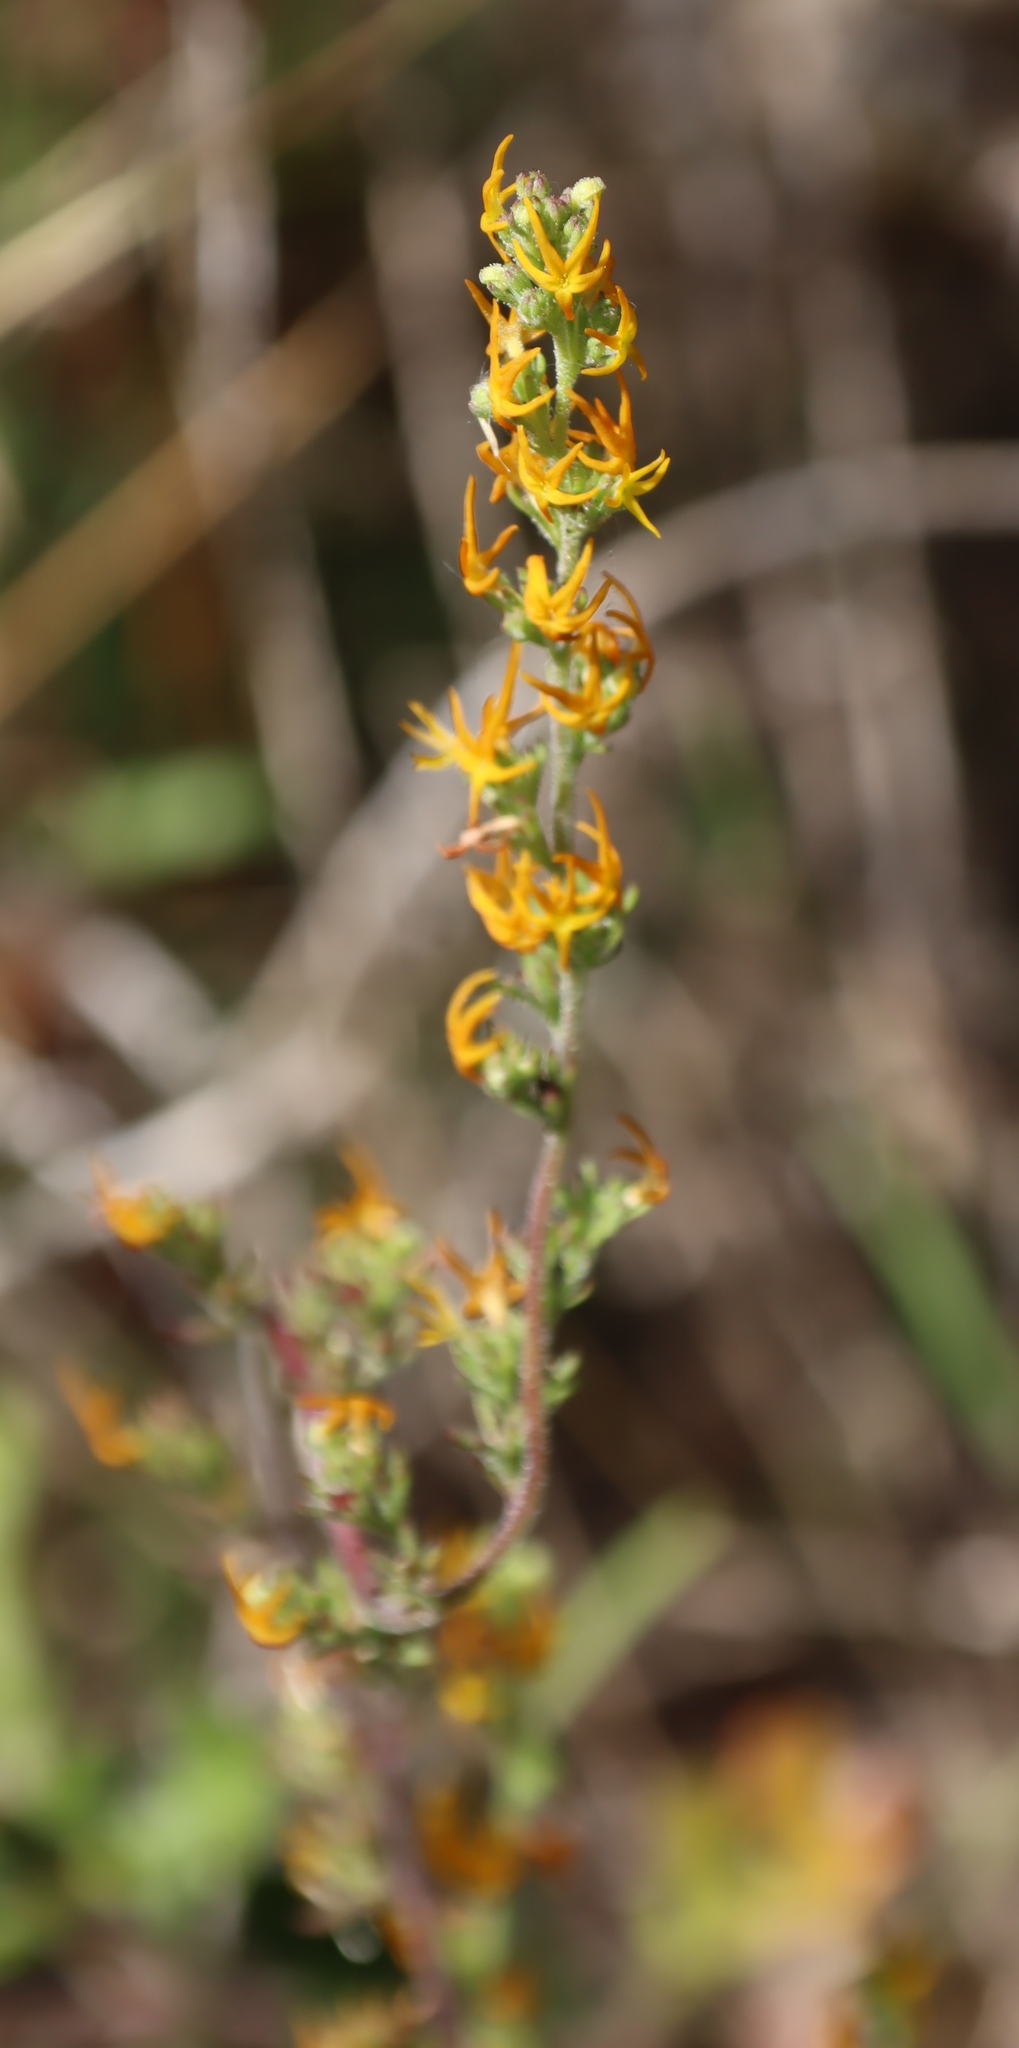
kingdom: Plantae
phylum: Tracheophyta
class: Magnoliopsida
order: Lamiales
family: Scrophulariaceae
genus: Manulea
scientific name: Manulea cheiranthus
